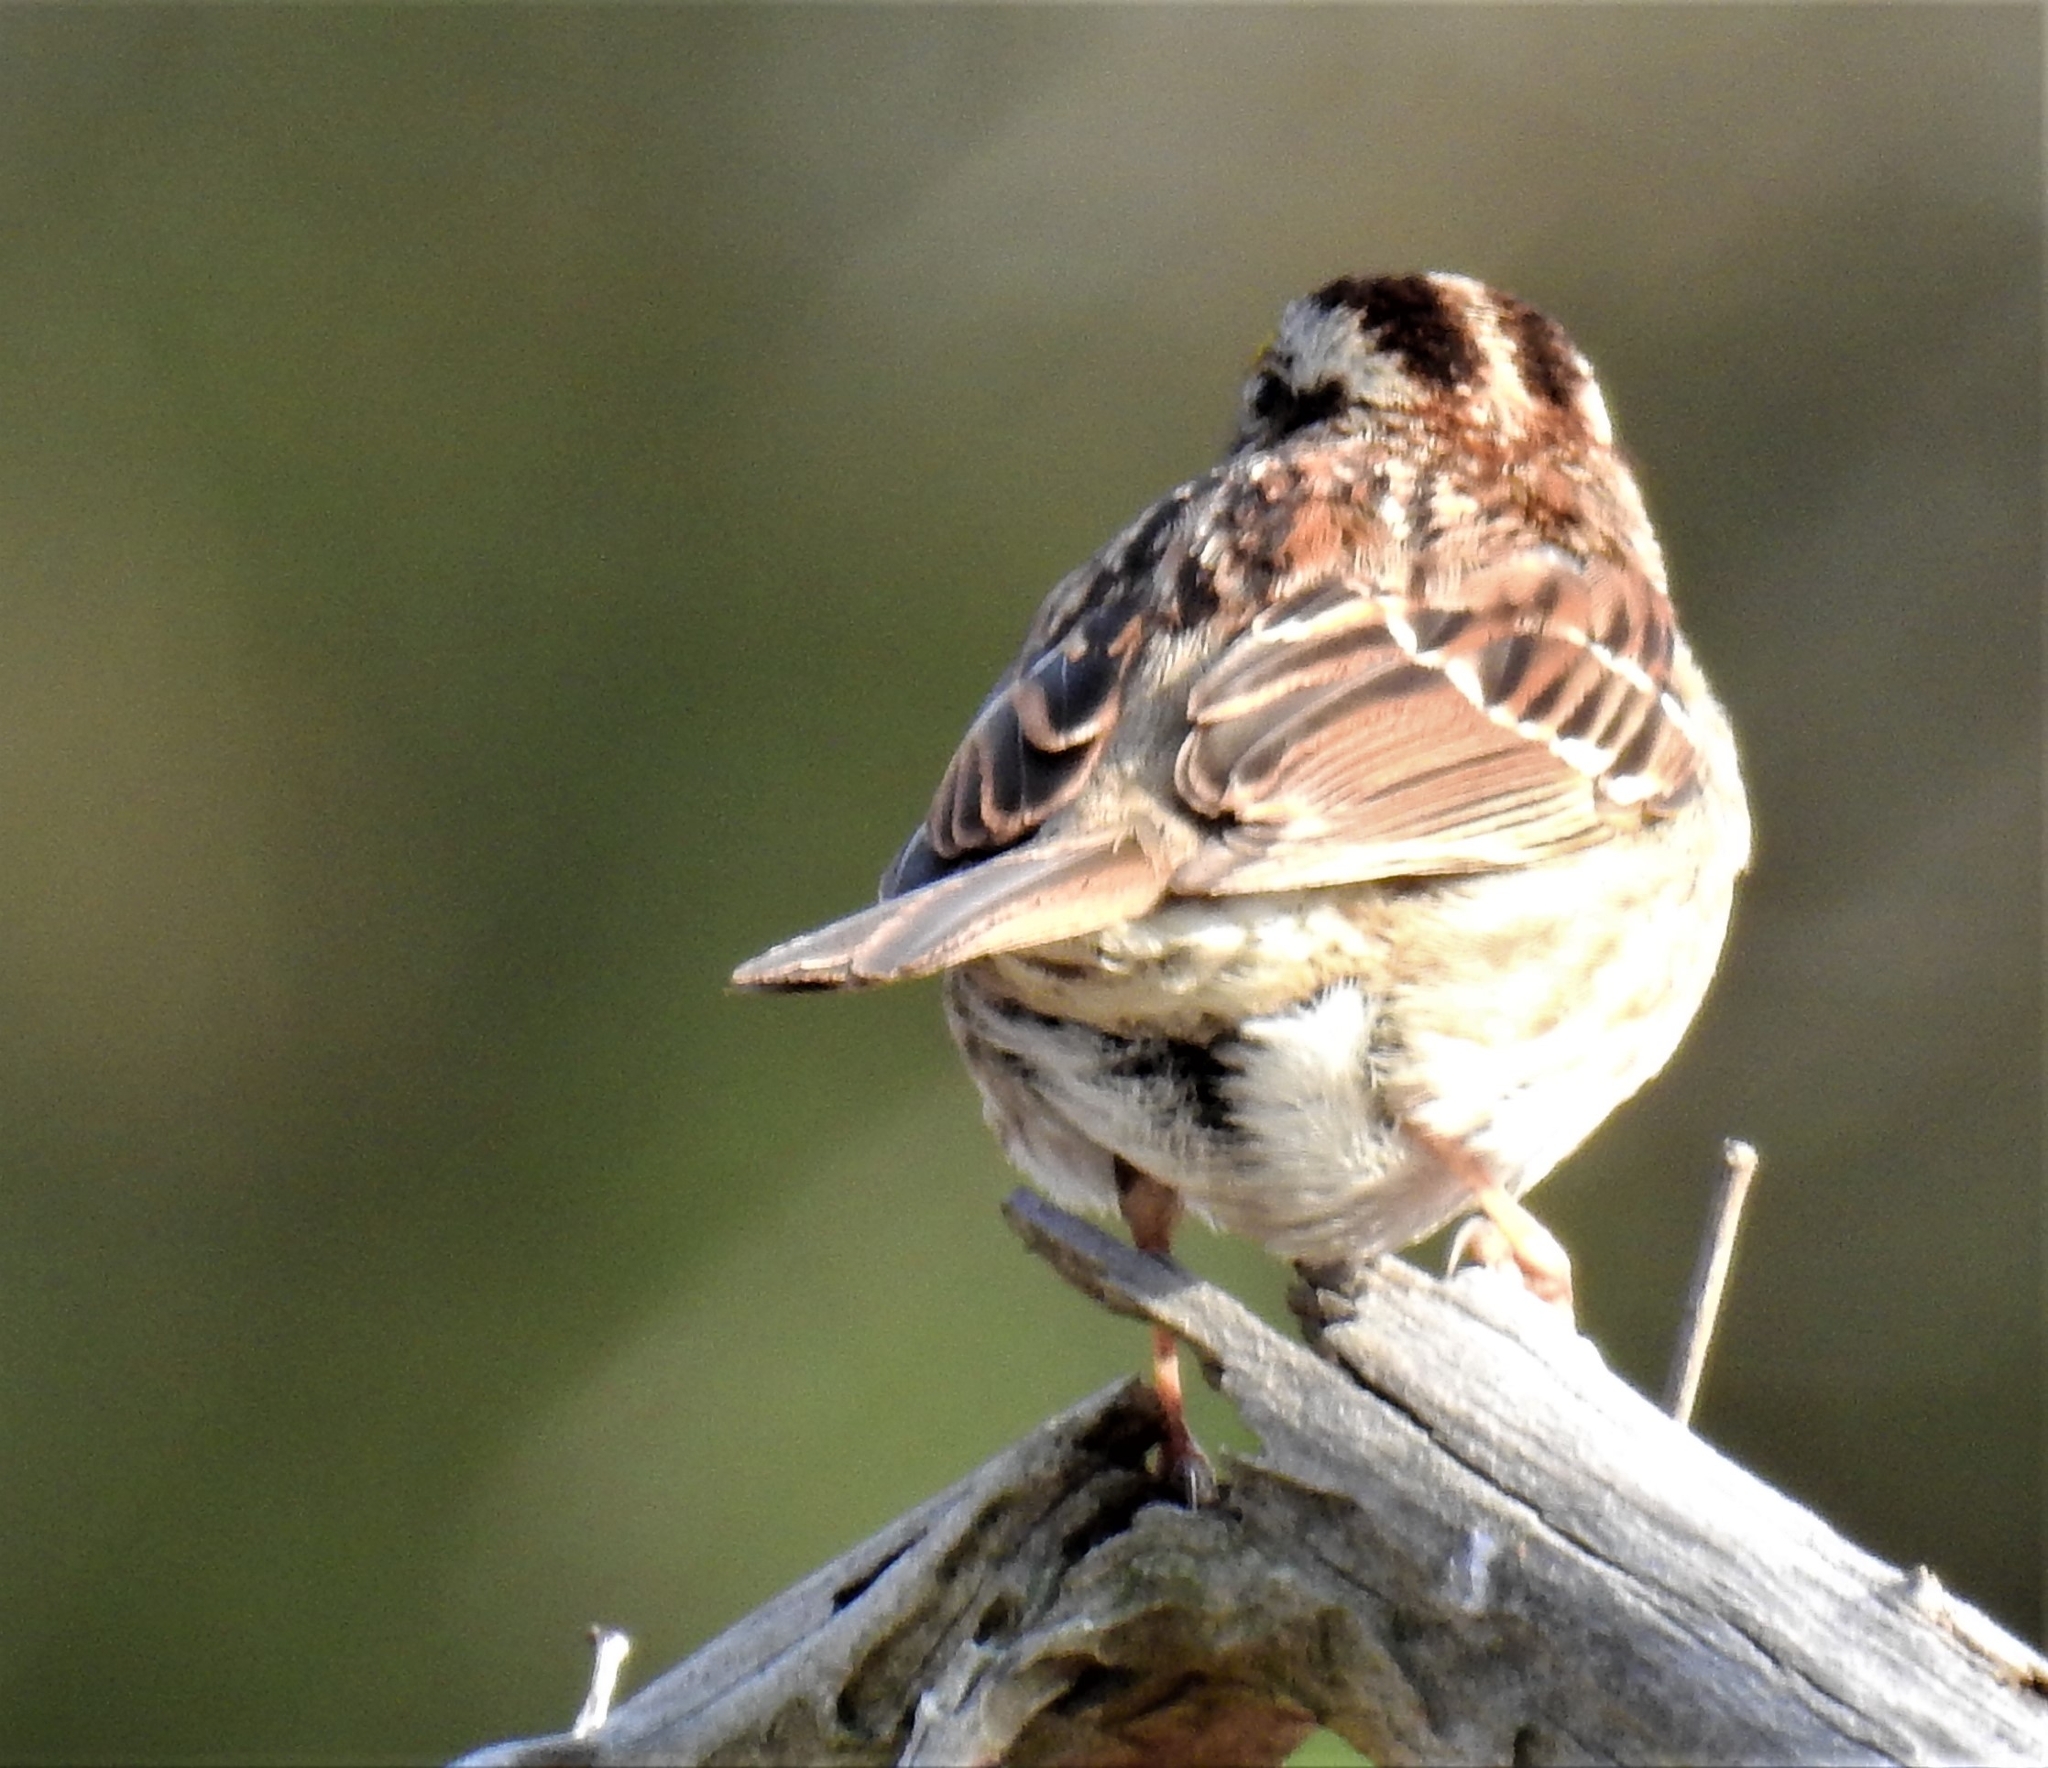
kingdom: Animalia
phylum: Chordata
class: Aves
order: Passeriformes
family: Passerellidae
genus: Zonotrichia
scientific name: Zonotrichia albicollis
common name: White-throated sparrow
